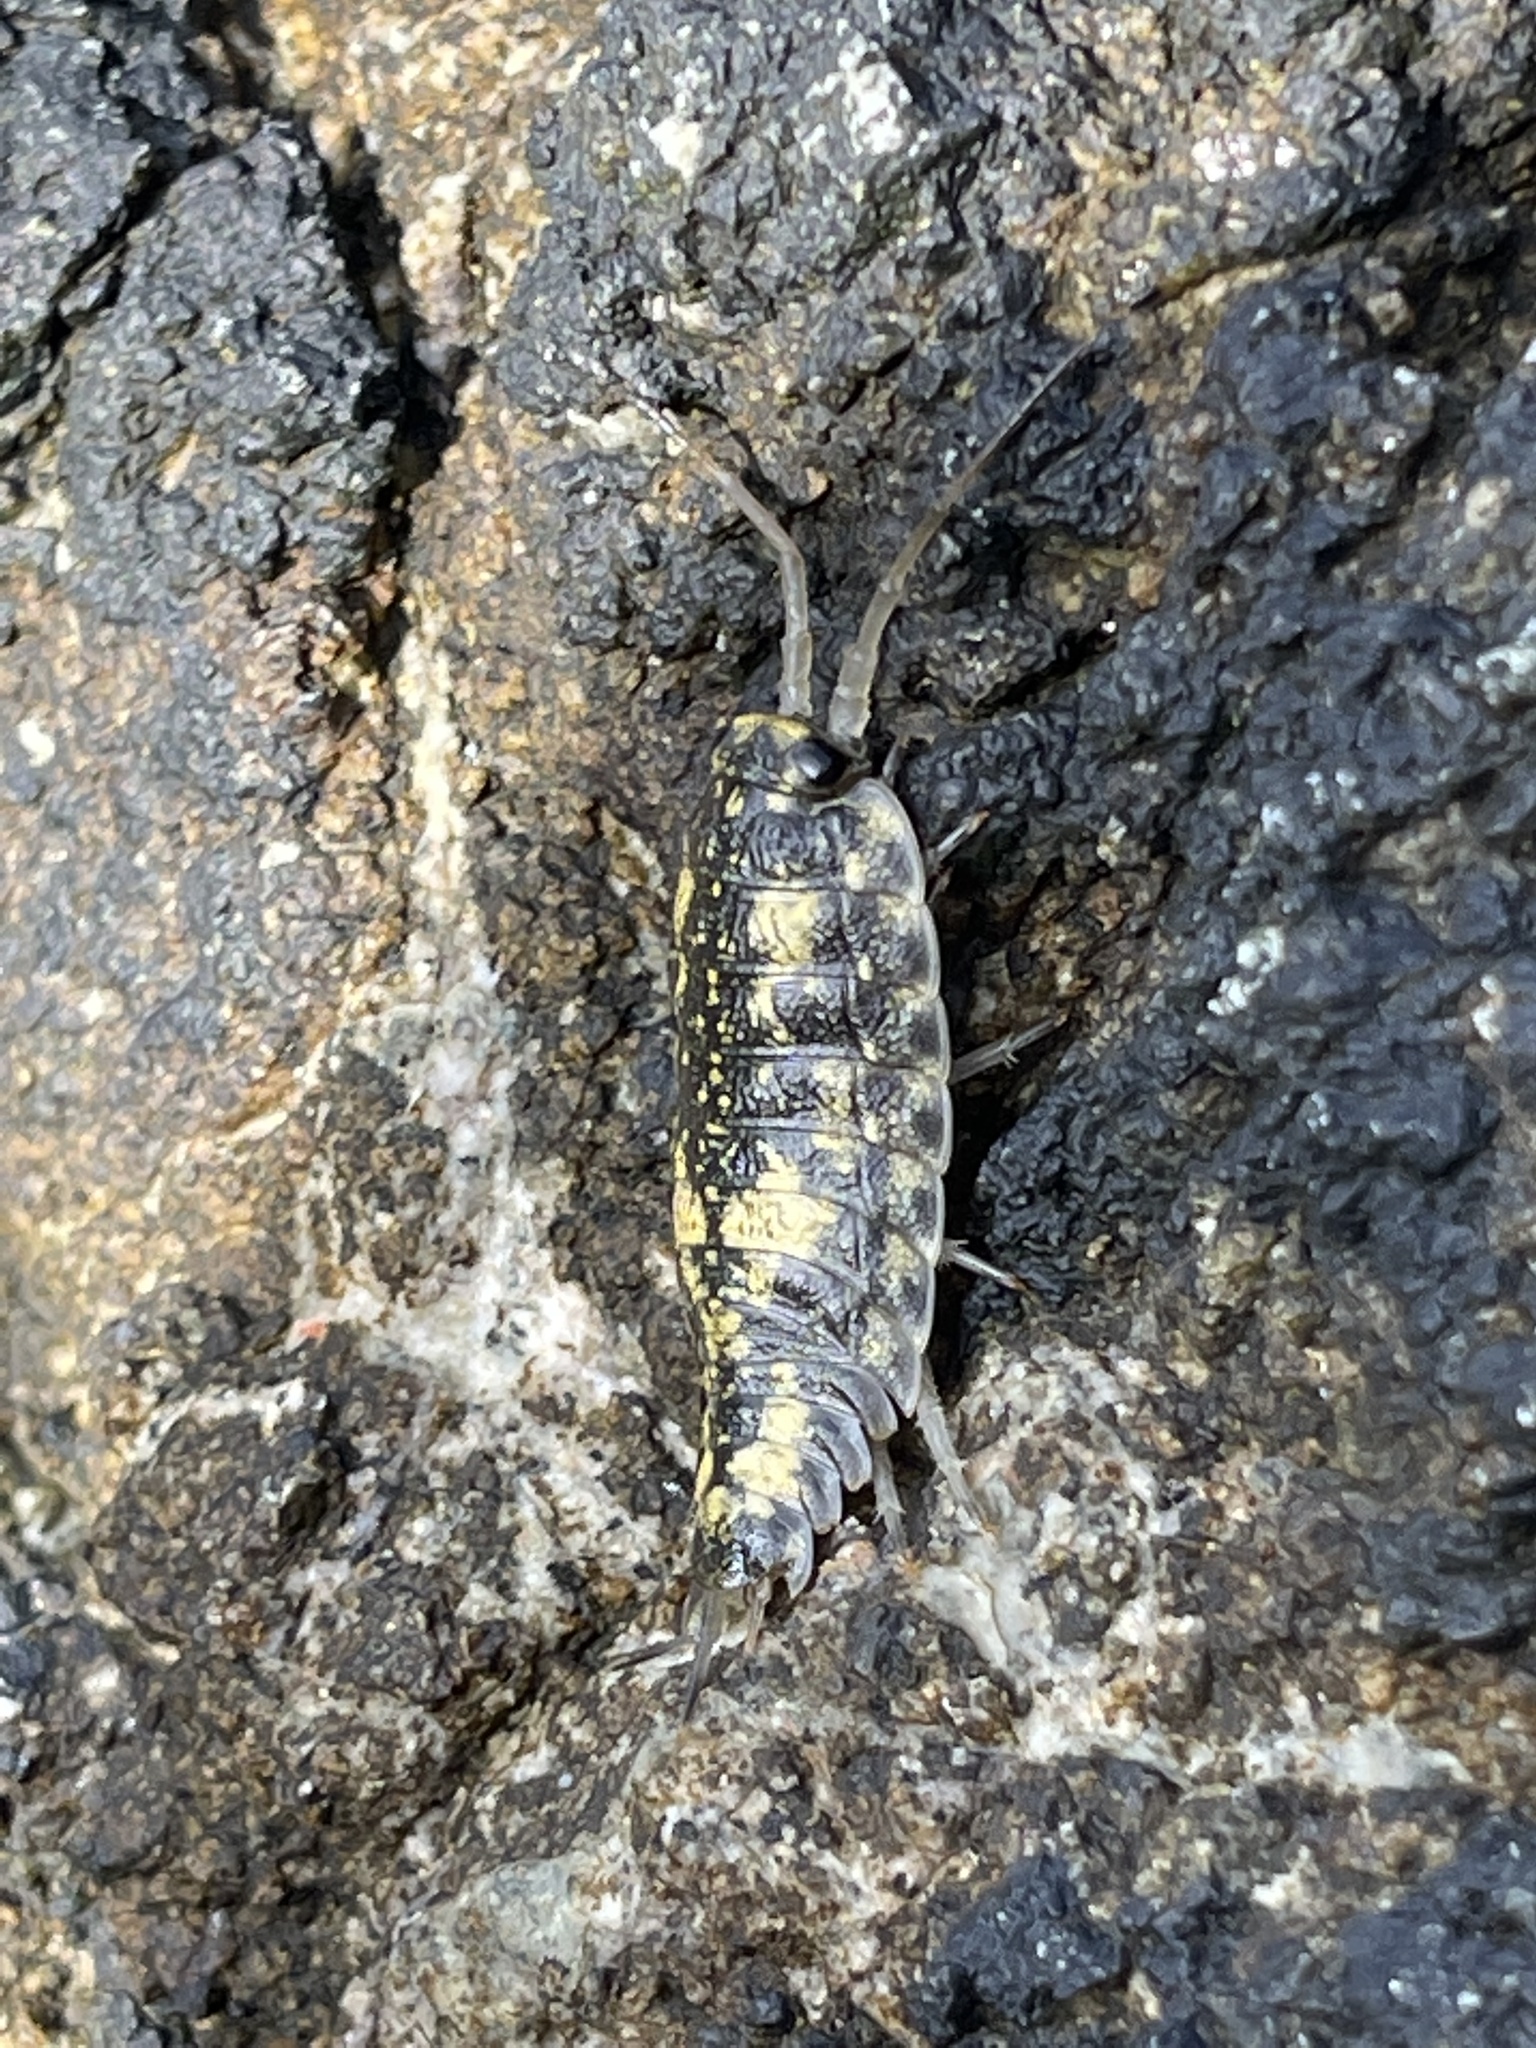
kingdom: Animalia
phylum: Arthropoda
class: Malacostraca
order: Isopoda
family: Ligiidae
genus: Ligia
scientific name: Ligia pallasii
